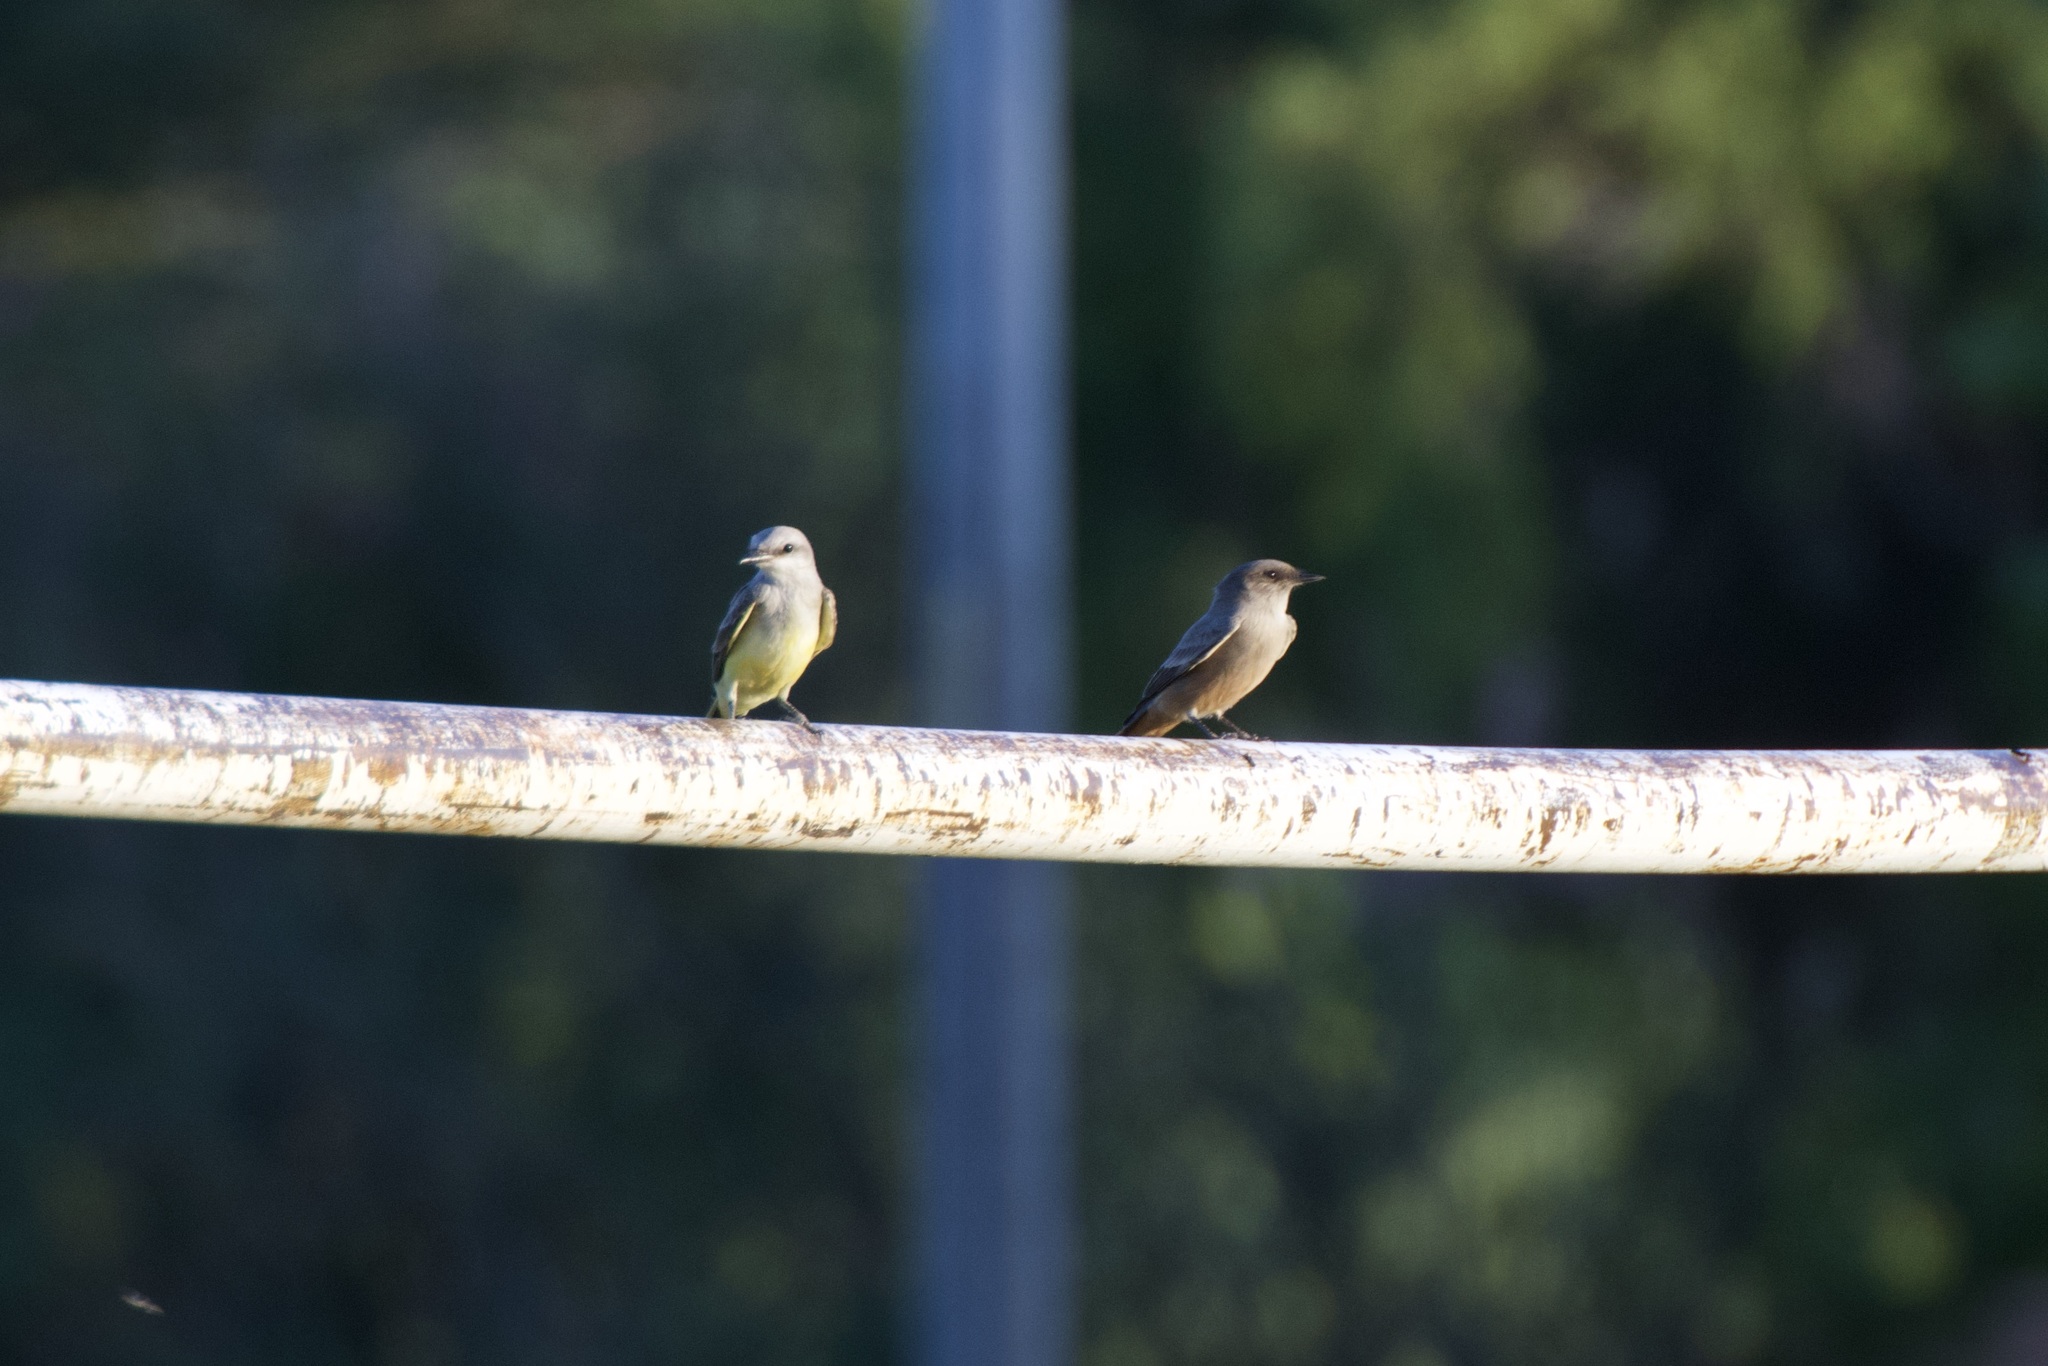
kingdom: Animalia
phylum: Chordata
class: Aves
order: Passeriformes
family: Tyrannidae
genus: Sayornis
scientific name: Sayornis saya
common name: Say's phoebe
